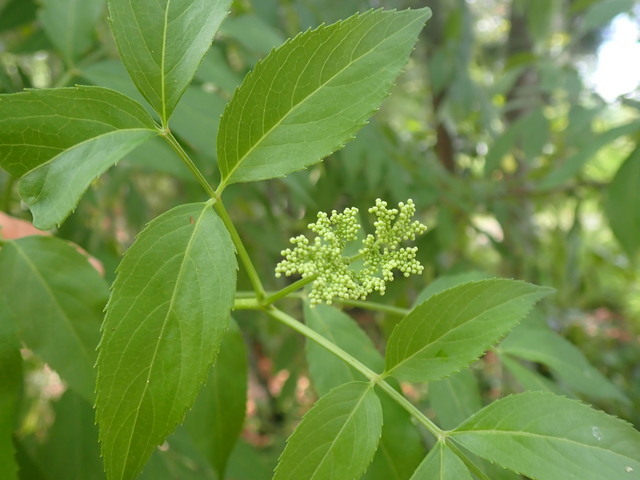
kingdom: Plantae
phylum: Tracheophyta
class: Magnoliopsida
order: Dipsacales
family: Viburnaceae
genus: Sambucus
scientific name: Sambucus canadensis
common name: American elder
